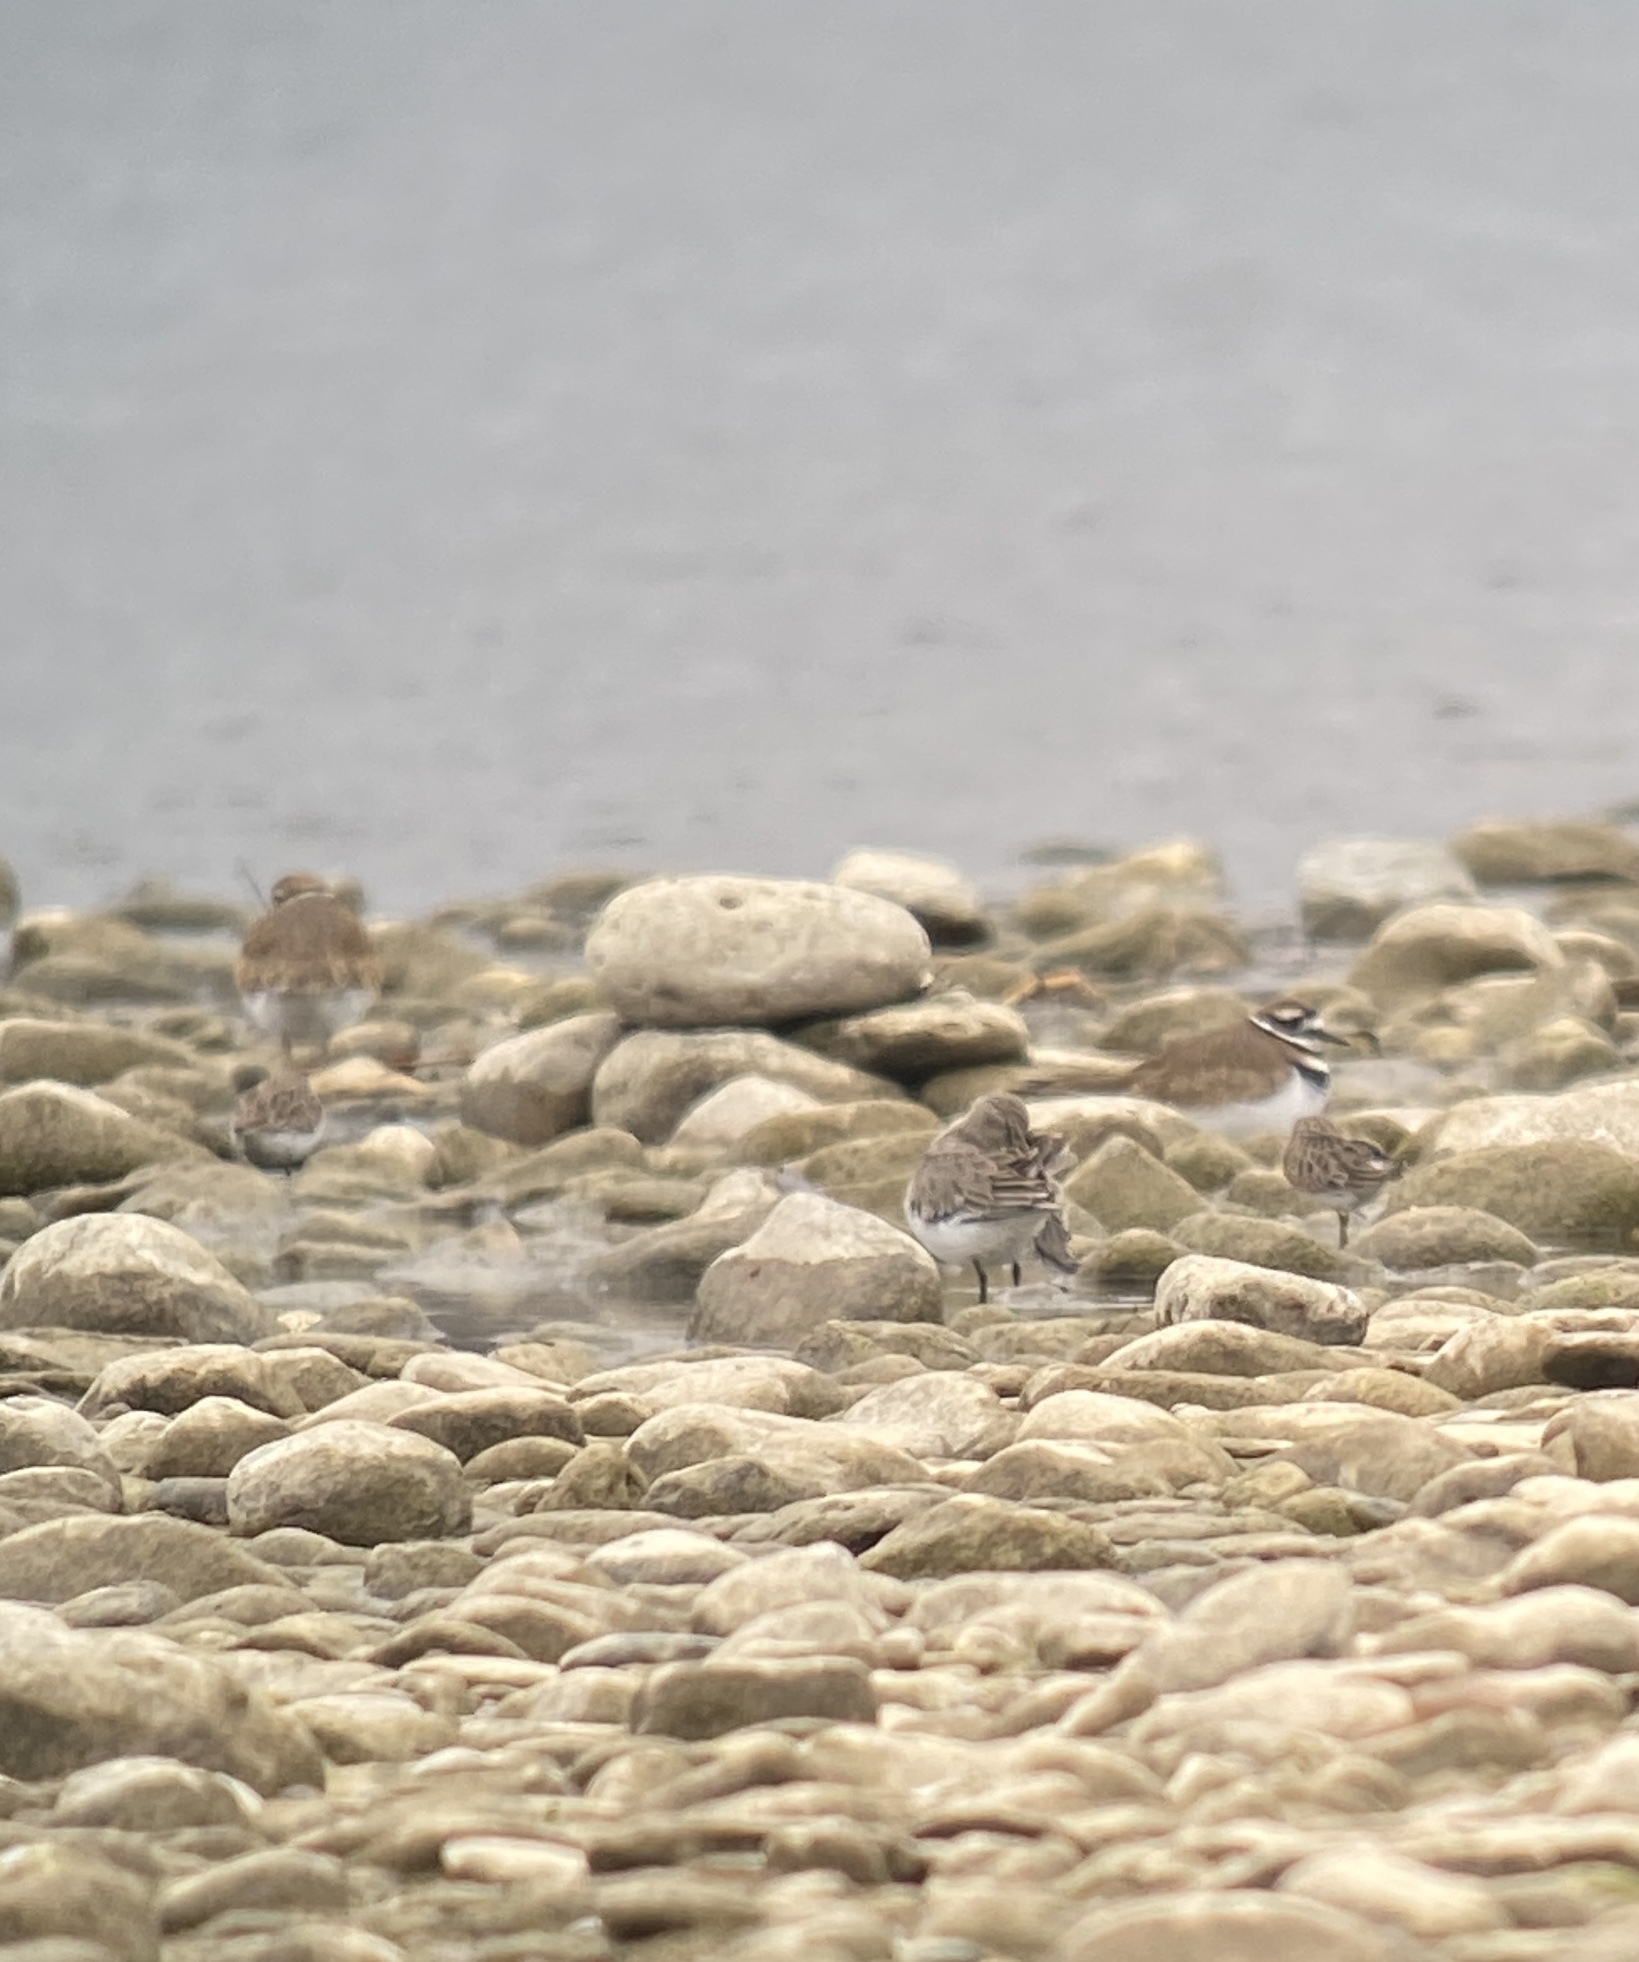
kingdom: Animalia
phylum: Chordata
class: Aves
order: Charadriiformes
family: Scolopacidae
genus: Calidris
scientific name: Calidris minutilla
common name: Least sandpiper
